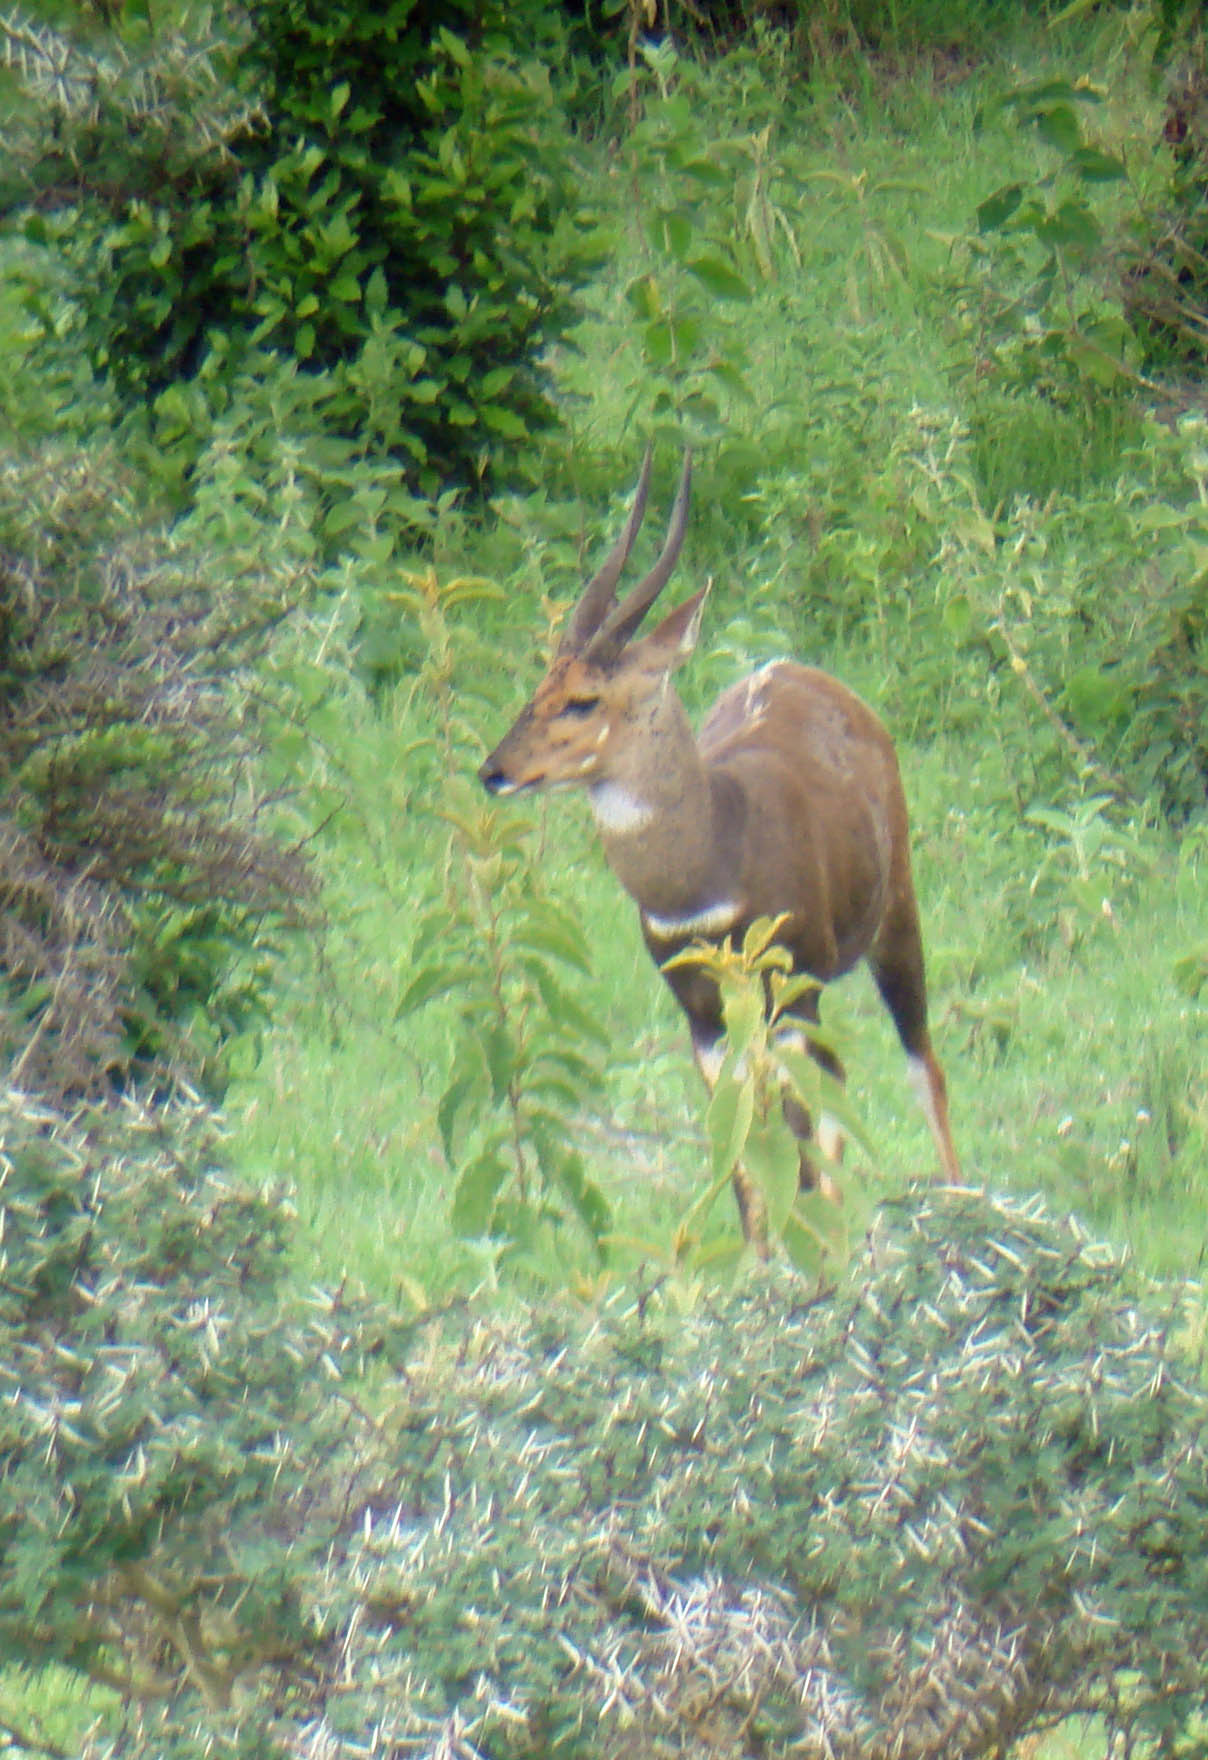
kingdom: Animalia
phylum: Chordata
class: Mammalia
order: Artiodactyla
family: Bovidae
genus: Tragelaphus
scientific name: Tragelaphus scriptus
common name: Bushbuck
